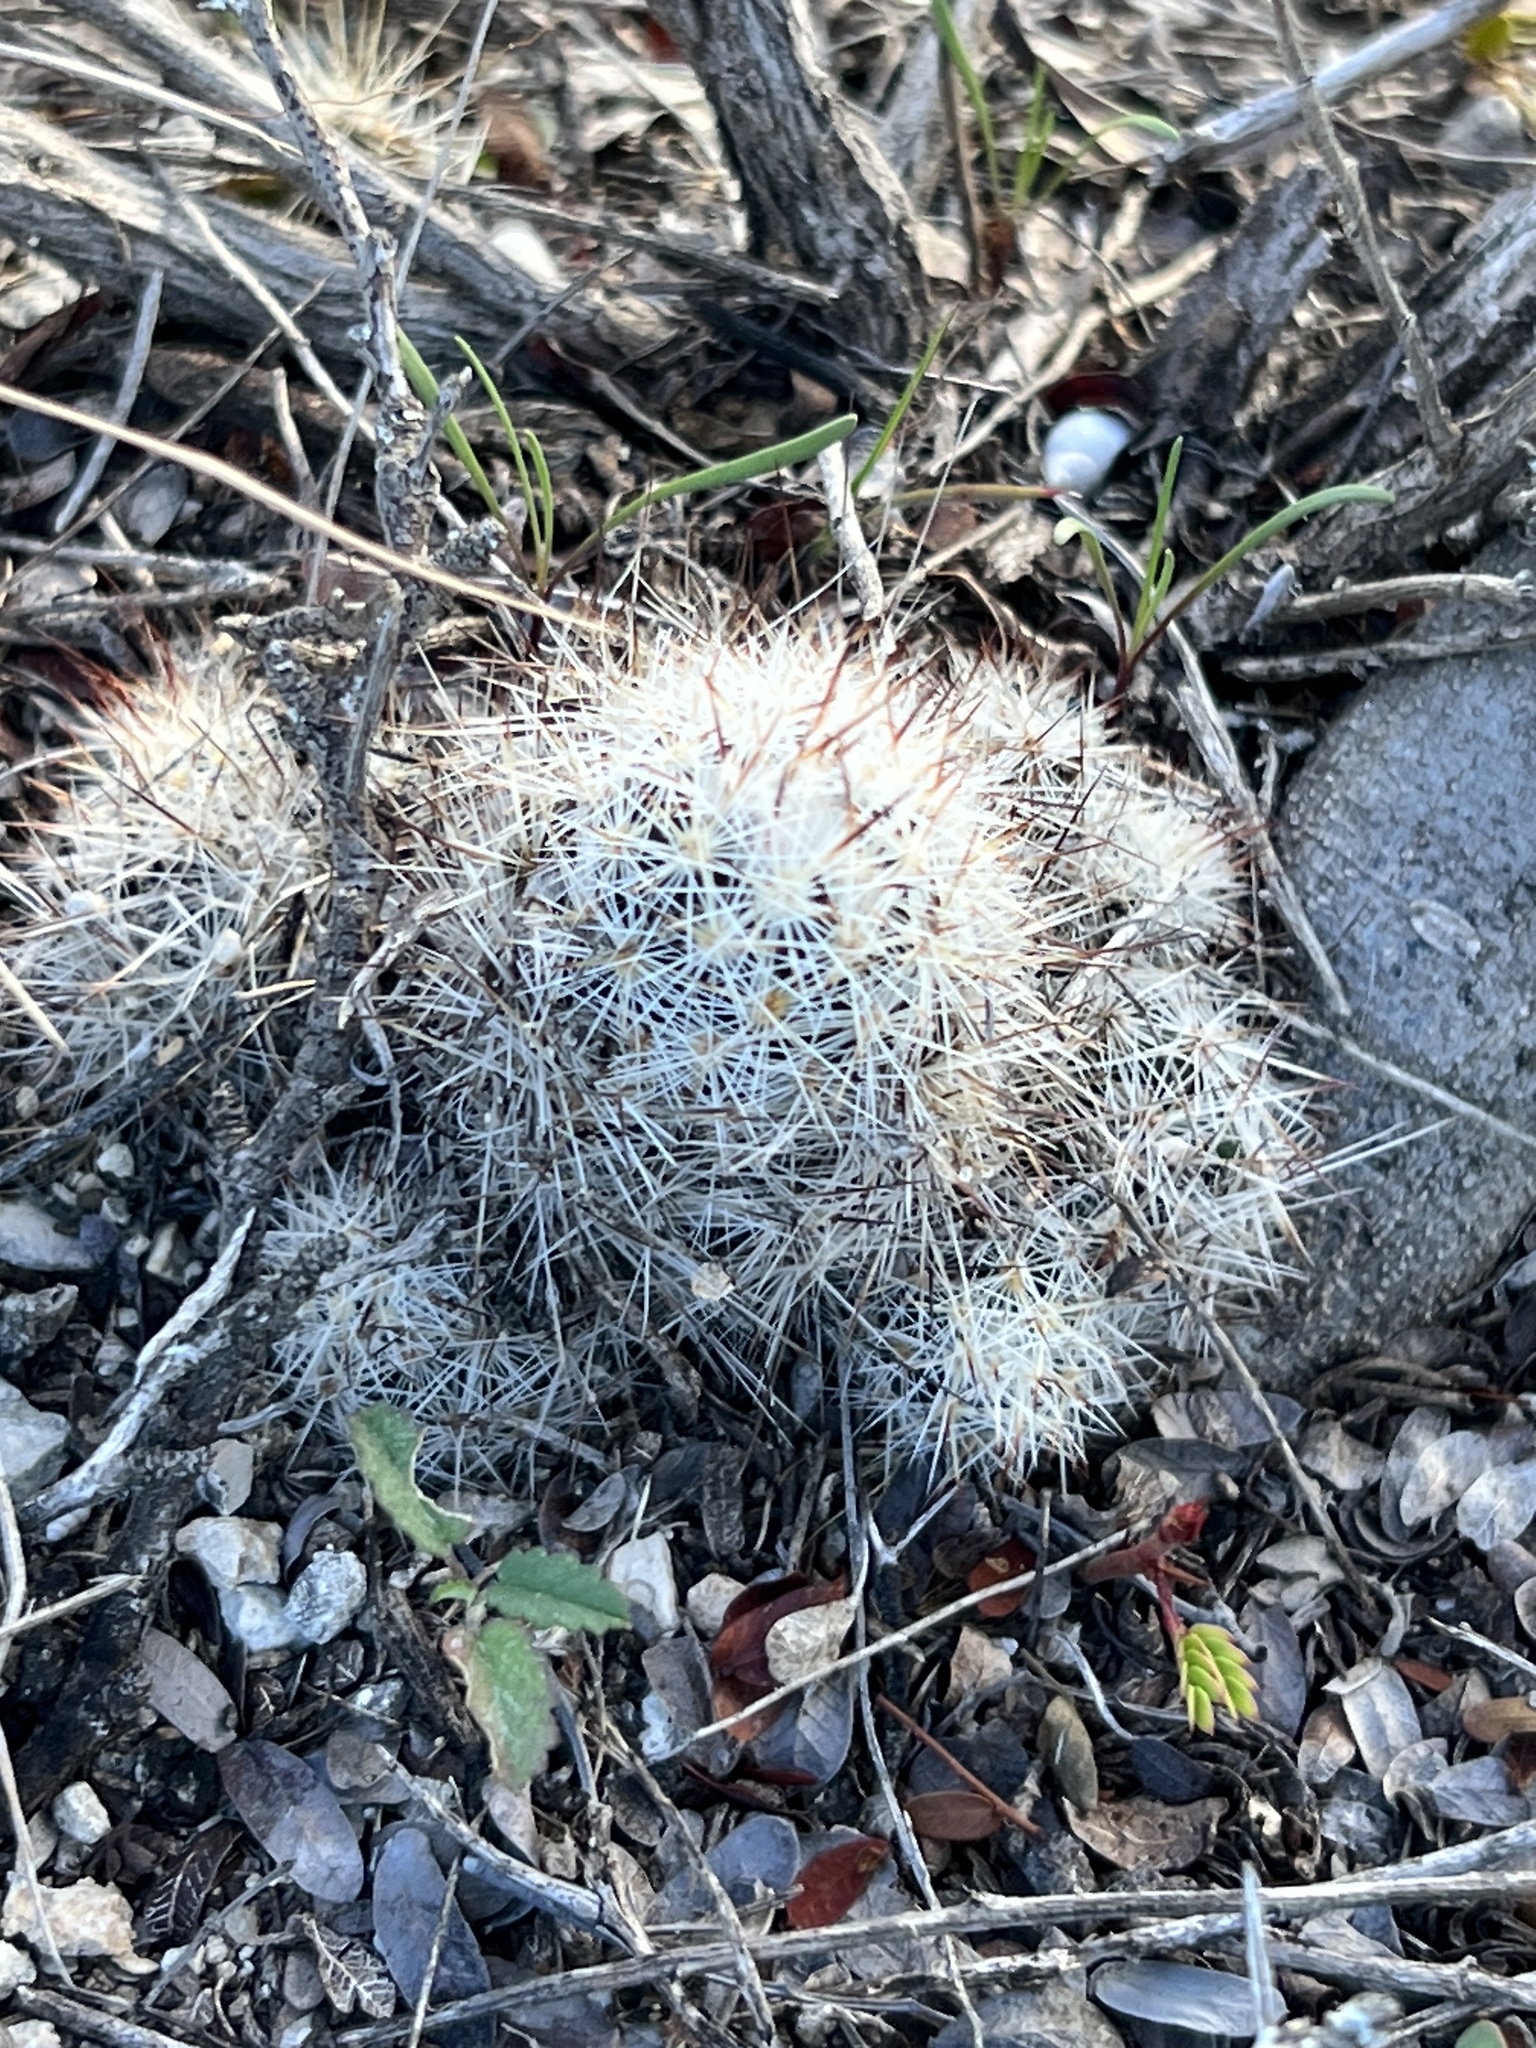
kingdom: Plantae
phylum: Tracheophyta
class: Magnoliopsida
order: Caryophyllales
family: Cactaceae
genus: Pelecyphora
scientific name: Pelecyphora emskoetteriana
